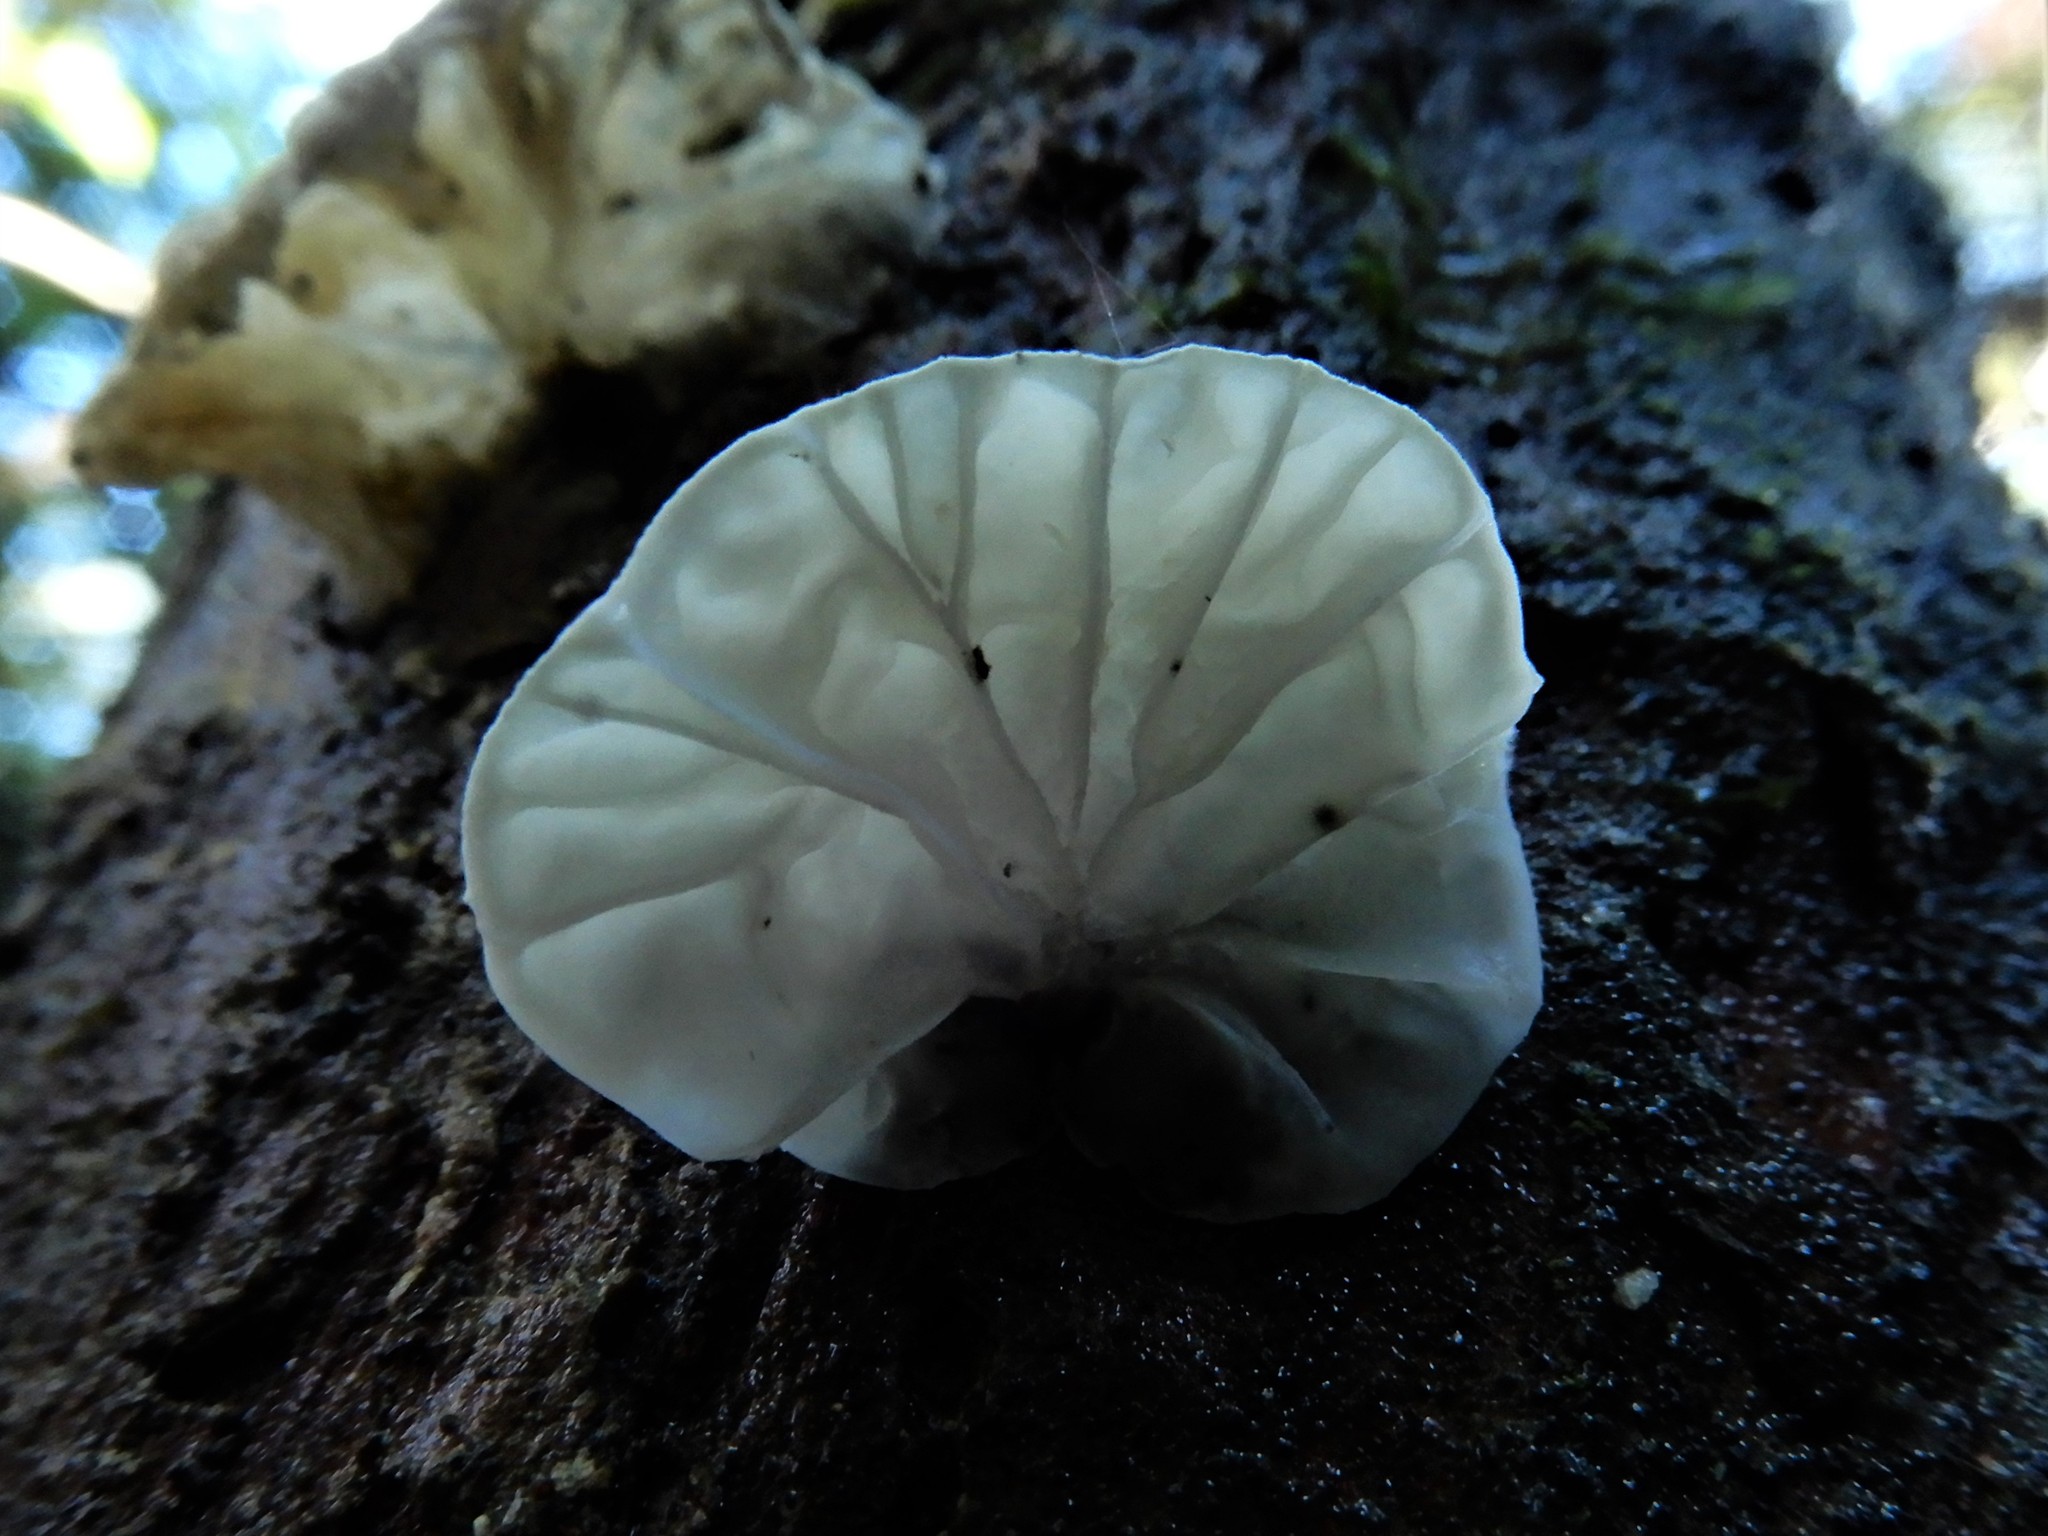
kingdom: Fungi
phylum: Basidiomycota
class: Agaricomycetes
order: Agaricales
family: Marasmiaceae
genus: Campanella
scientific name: Campanella tristis
